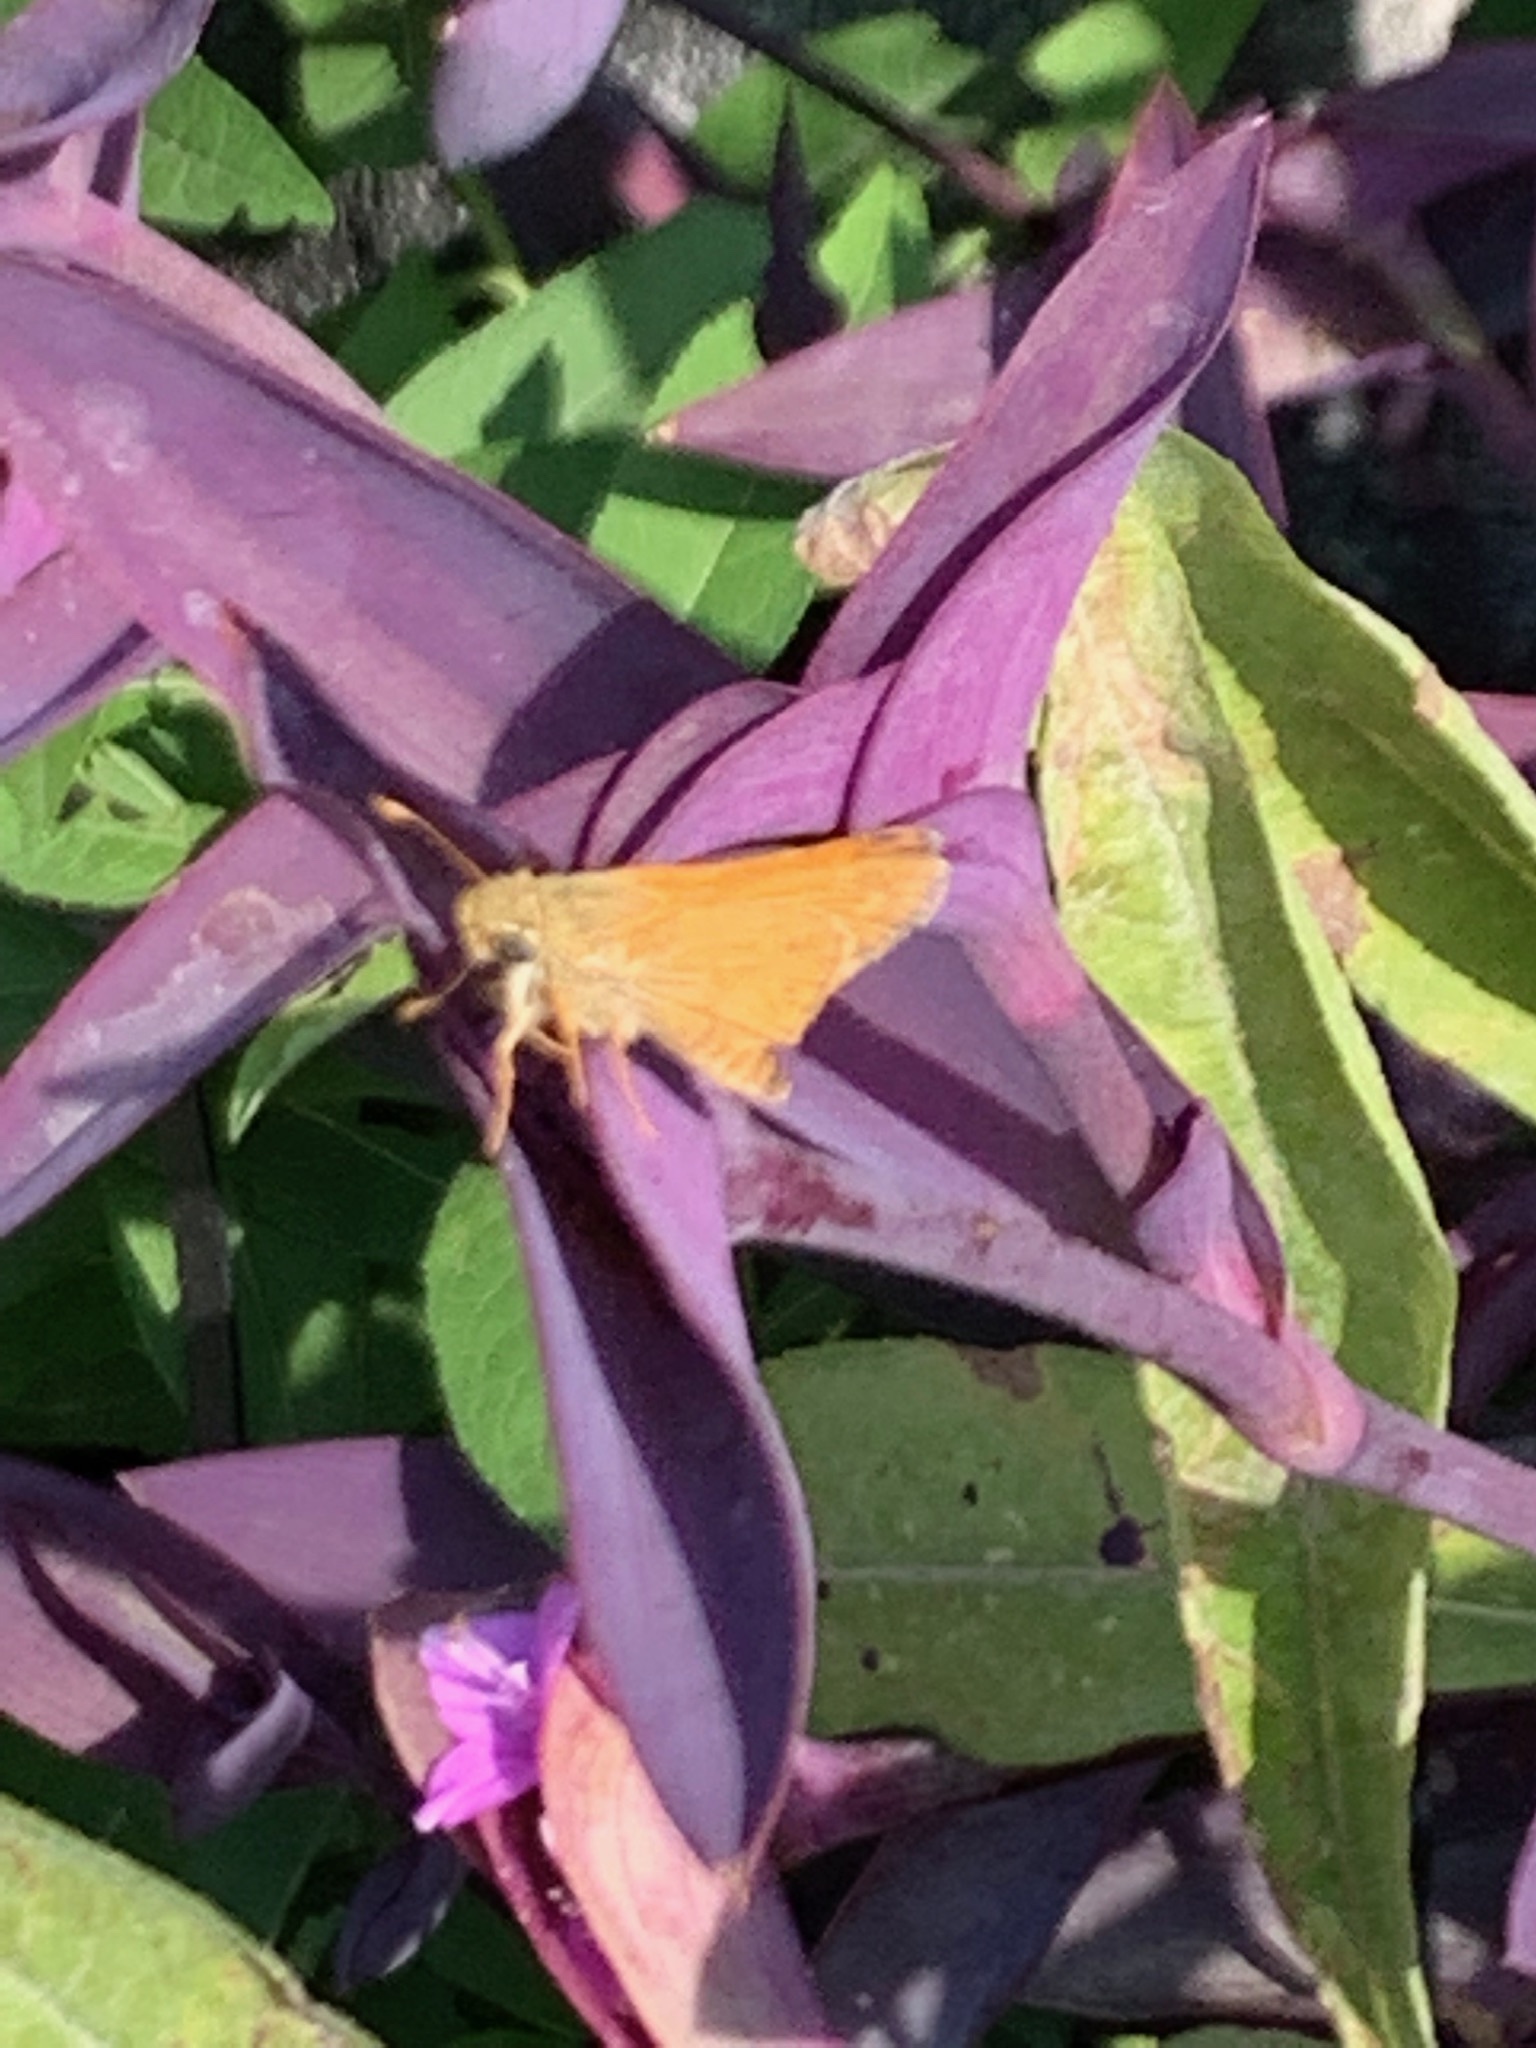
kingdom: Animalia
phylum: Arthropoda
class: Insecta
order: Lepidoptera
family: Hesperiidae
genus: Atalopedes
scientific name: Atalopedes
